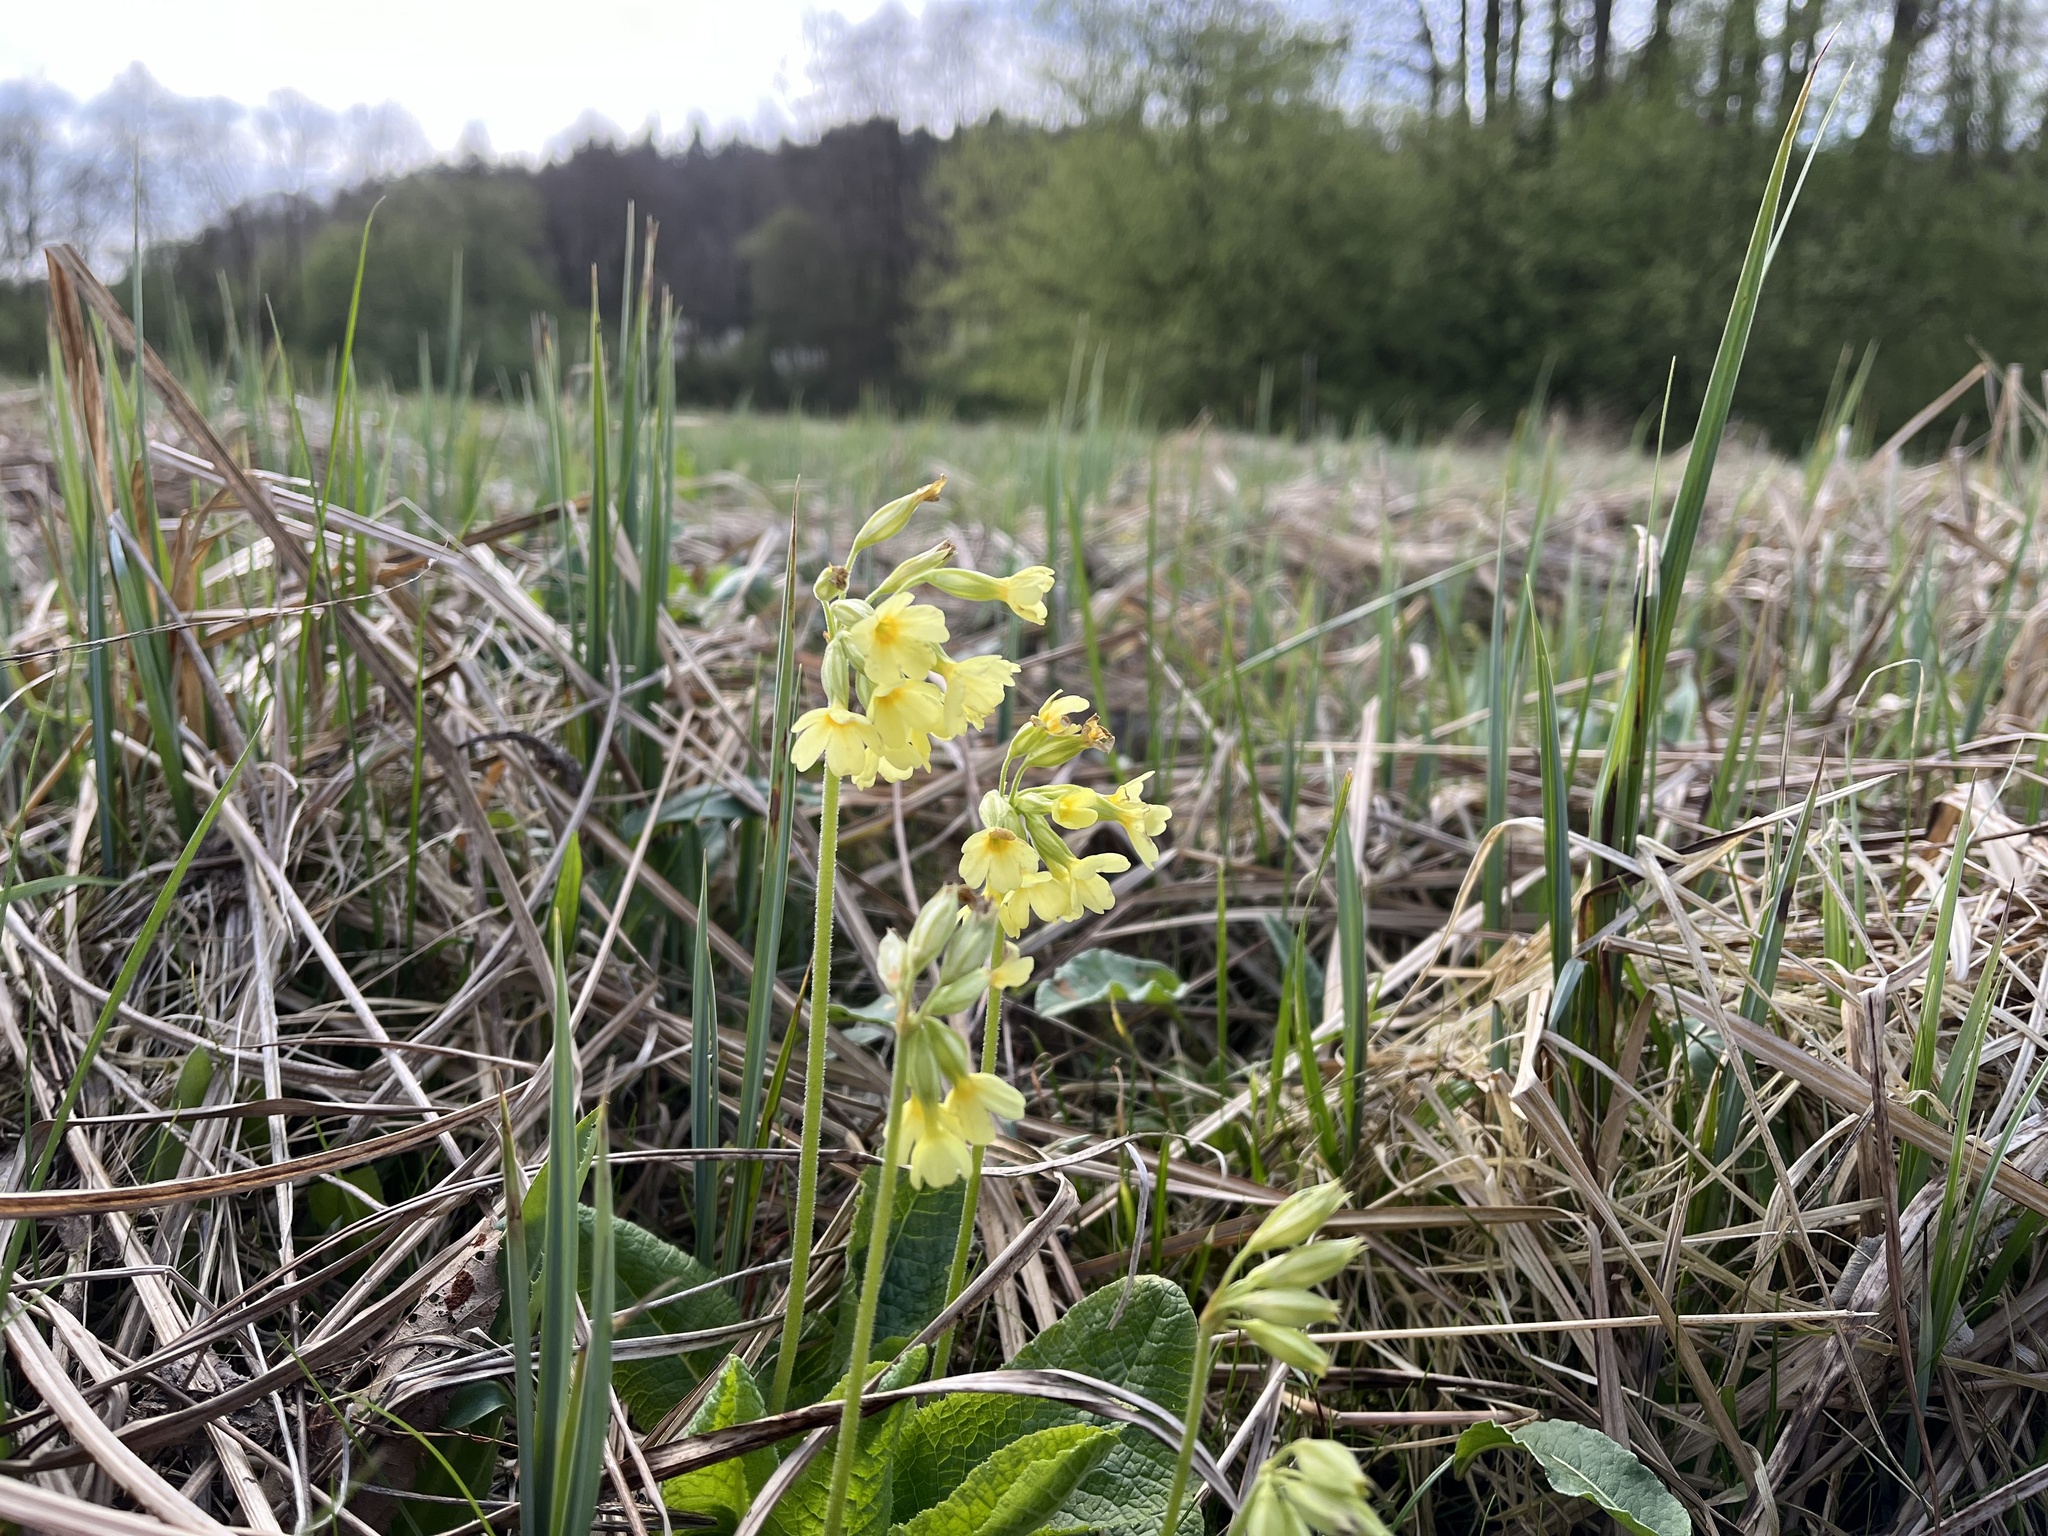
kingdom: Plantae
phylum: Tracheophyta
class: Magnoliopsida
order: Ericales
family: Primulaceae
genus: Primula
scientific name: Primula elatior
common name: Oxlip
